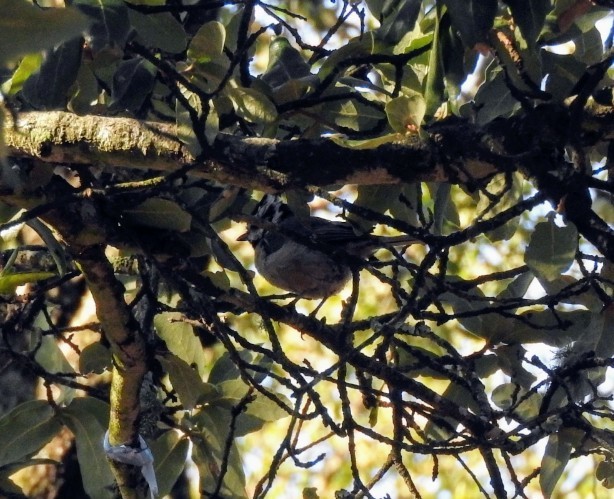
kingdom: Animalia
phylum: Chordata
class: Aves
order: Passeriformes
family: Paridae
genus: Baeolophus
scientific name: Baeolophus wollweberi
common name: Bridled titmouse
